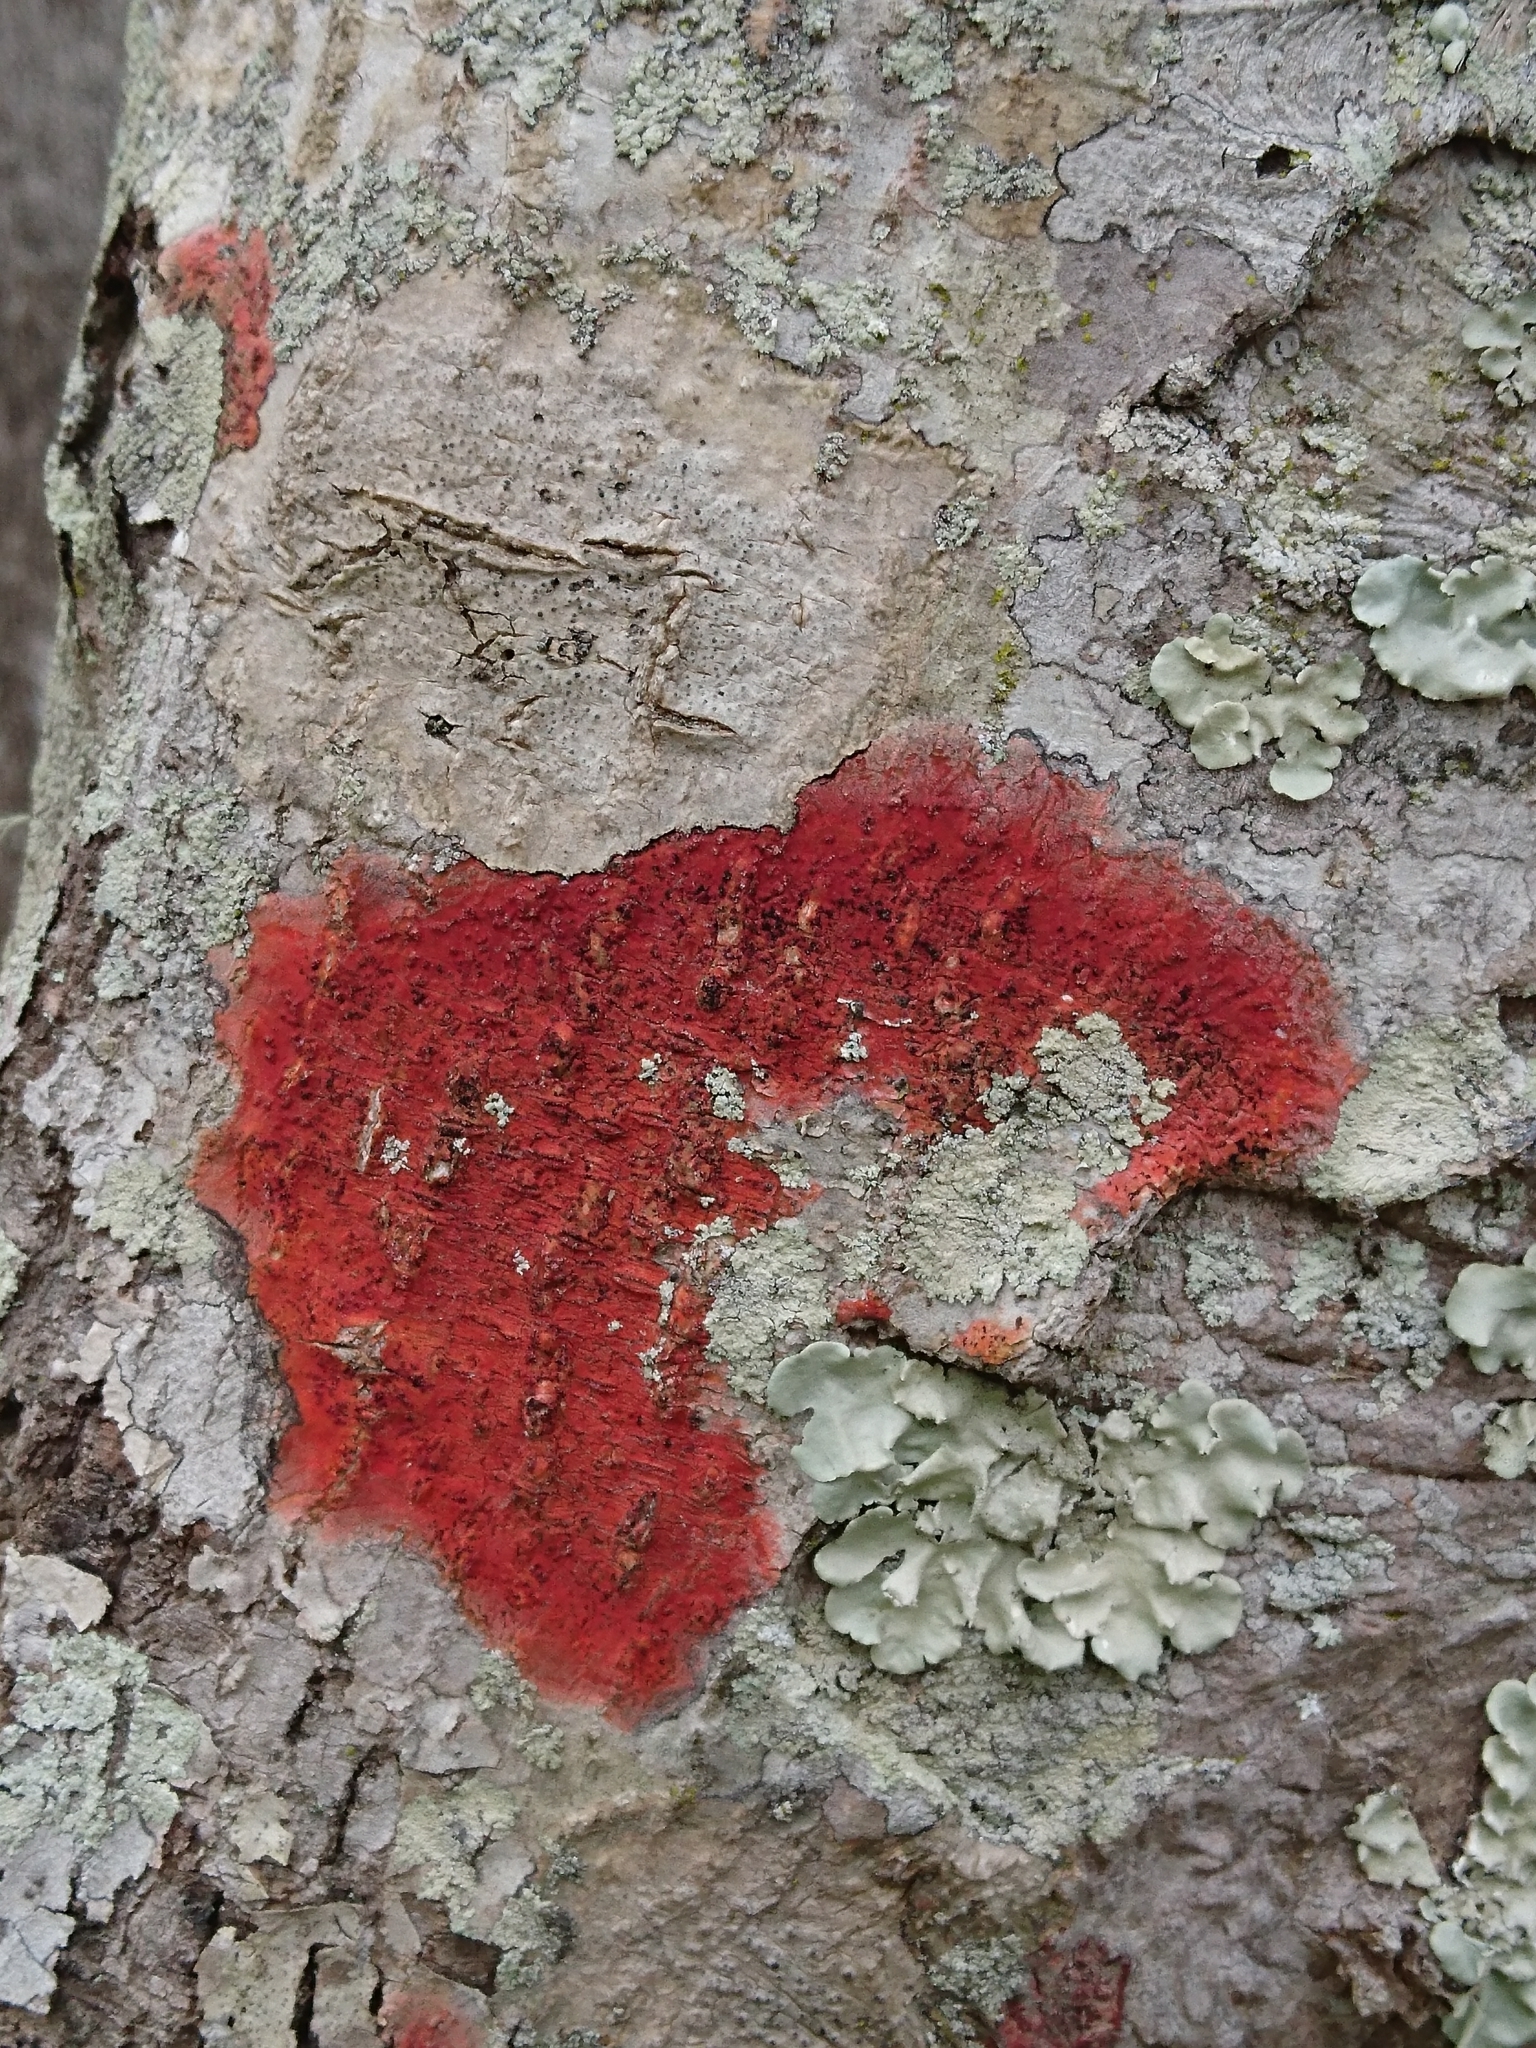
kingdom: Fungi
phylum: Ascomycota
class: Eurotiomycetes
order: Pyrenulales
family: Pyrenulaceae
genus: Pyrenula
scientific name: Pyrenula cruenta
